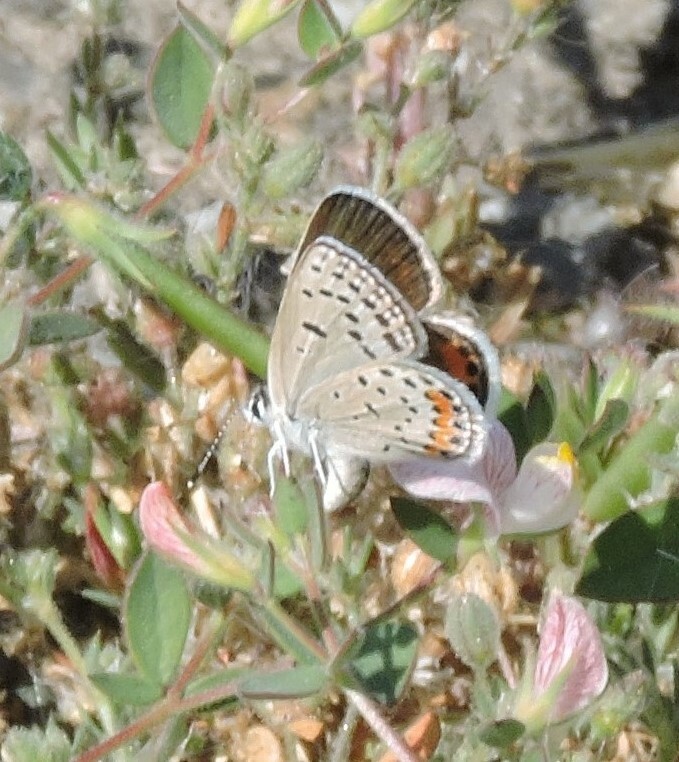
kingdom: Animalia
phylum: Arthropoda
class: Insecta
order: Lepidoptera
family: Lycaenidae
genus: Icaricia
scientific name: Icaricia acmon
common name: Acmon blue
